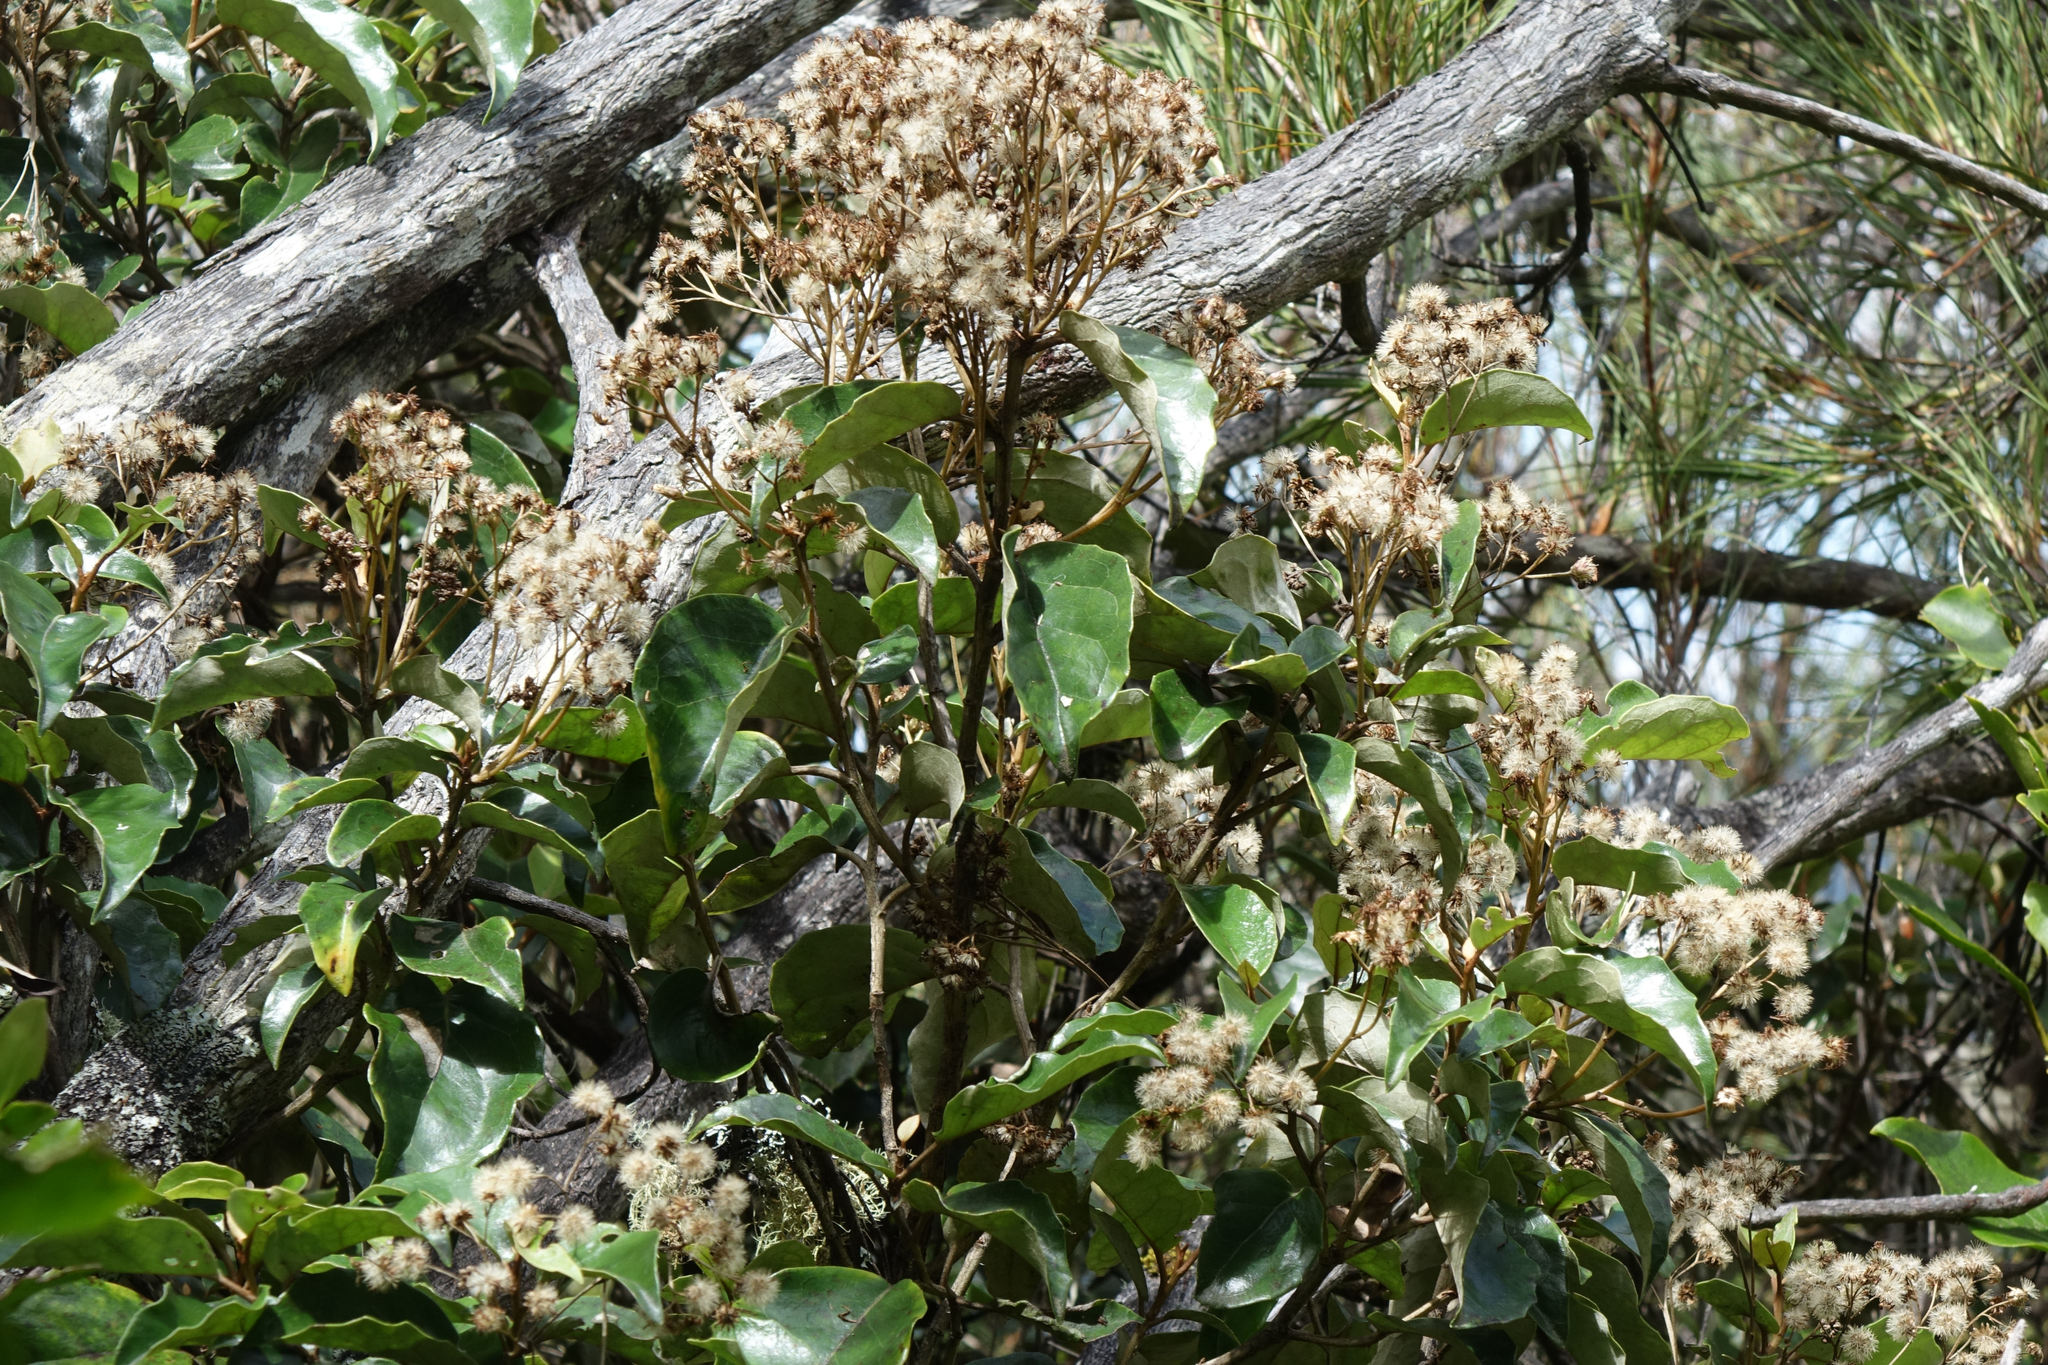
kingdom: Plantae
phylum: Tracheophyta
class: Magnoliopsida
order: Asterales
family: Asteraceae
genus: Olearia
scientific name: Olearia arborescens
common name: Glossy tree daisy
